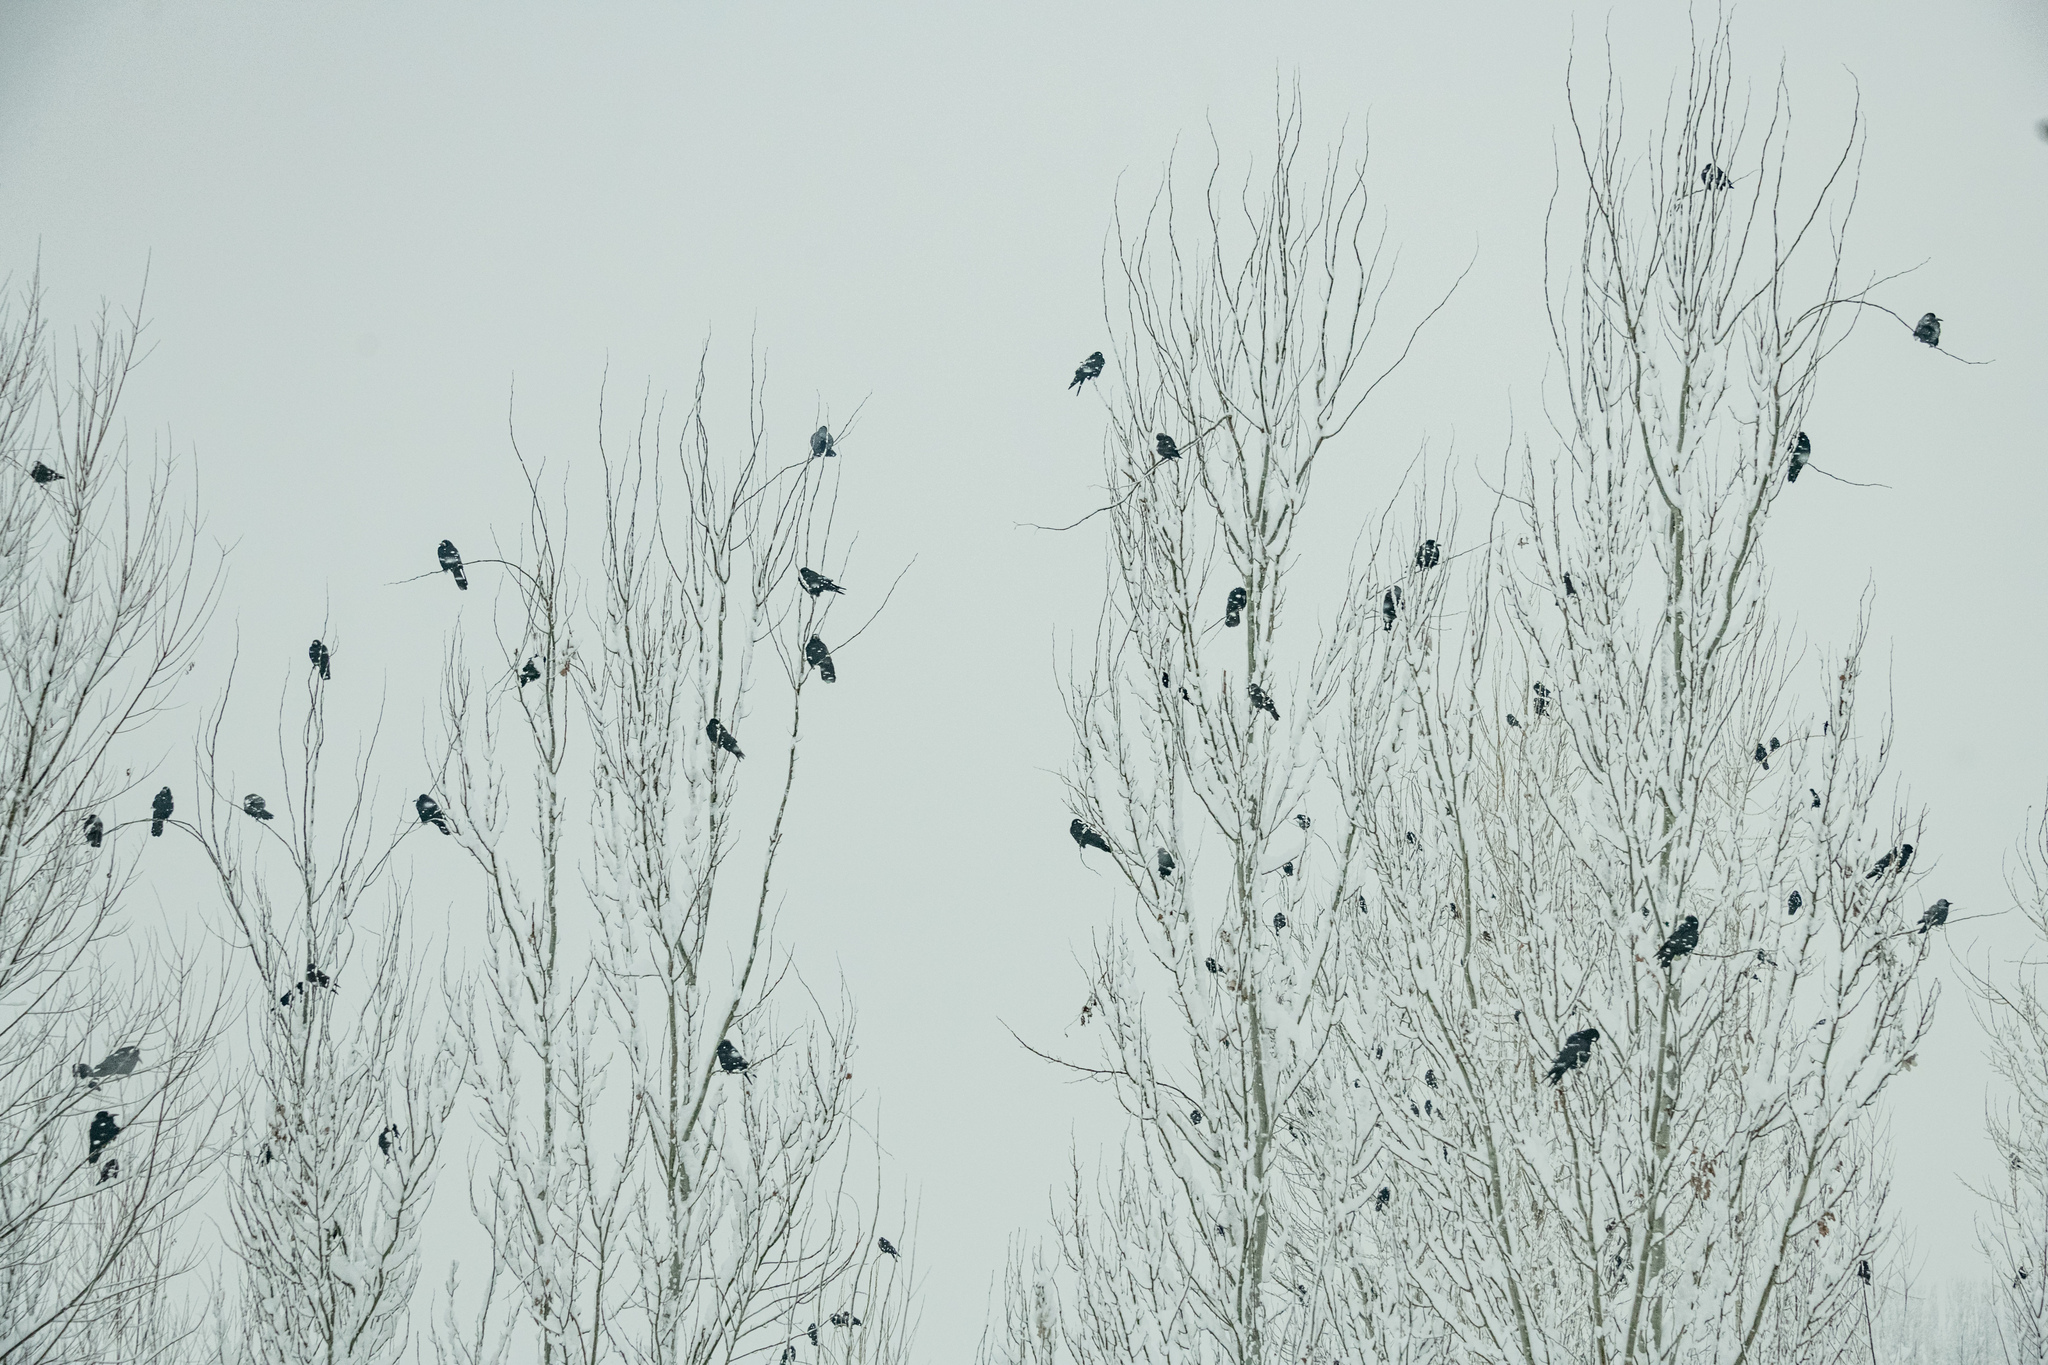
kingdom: Animalia
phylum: Chordata
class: Aves
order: Passeriformes
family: Corvidae
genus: Corvus
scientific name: Corvus frugilegus
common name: Rook
